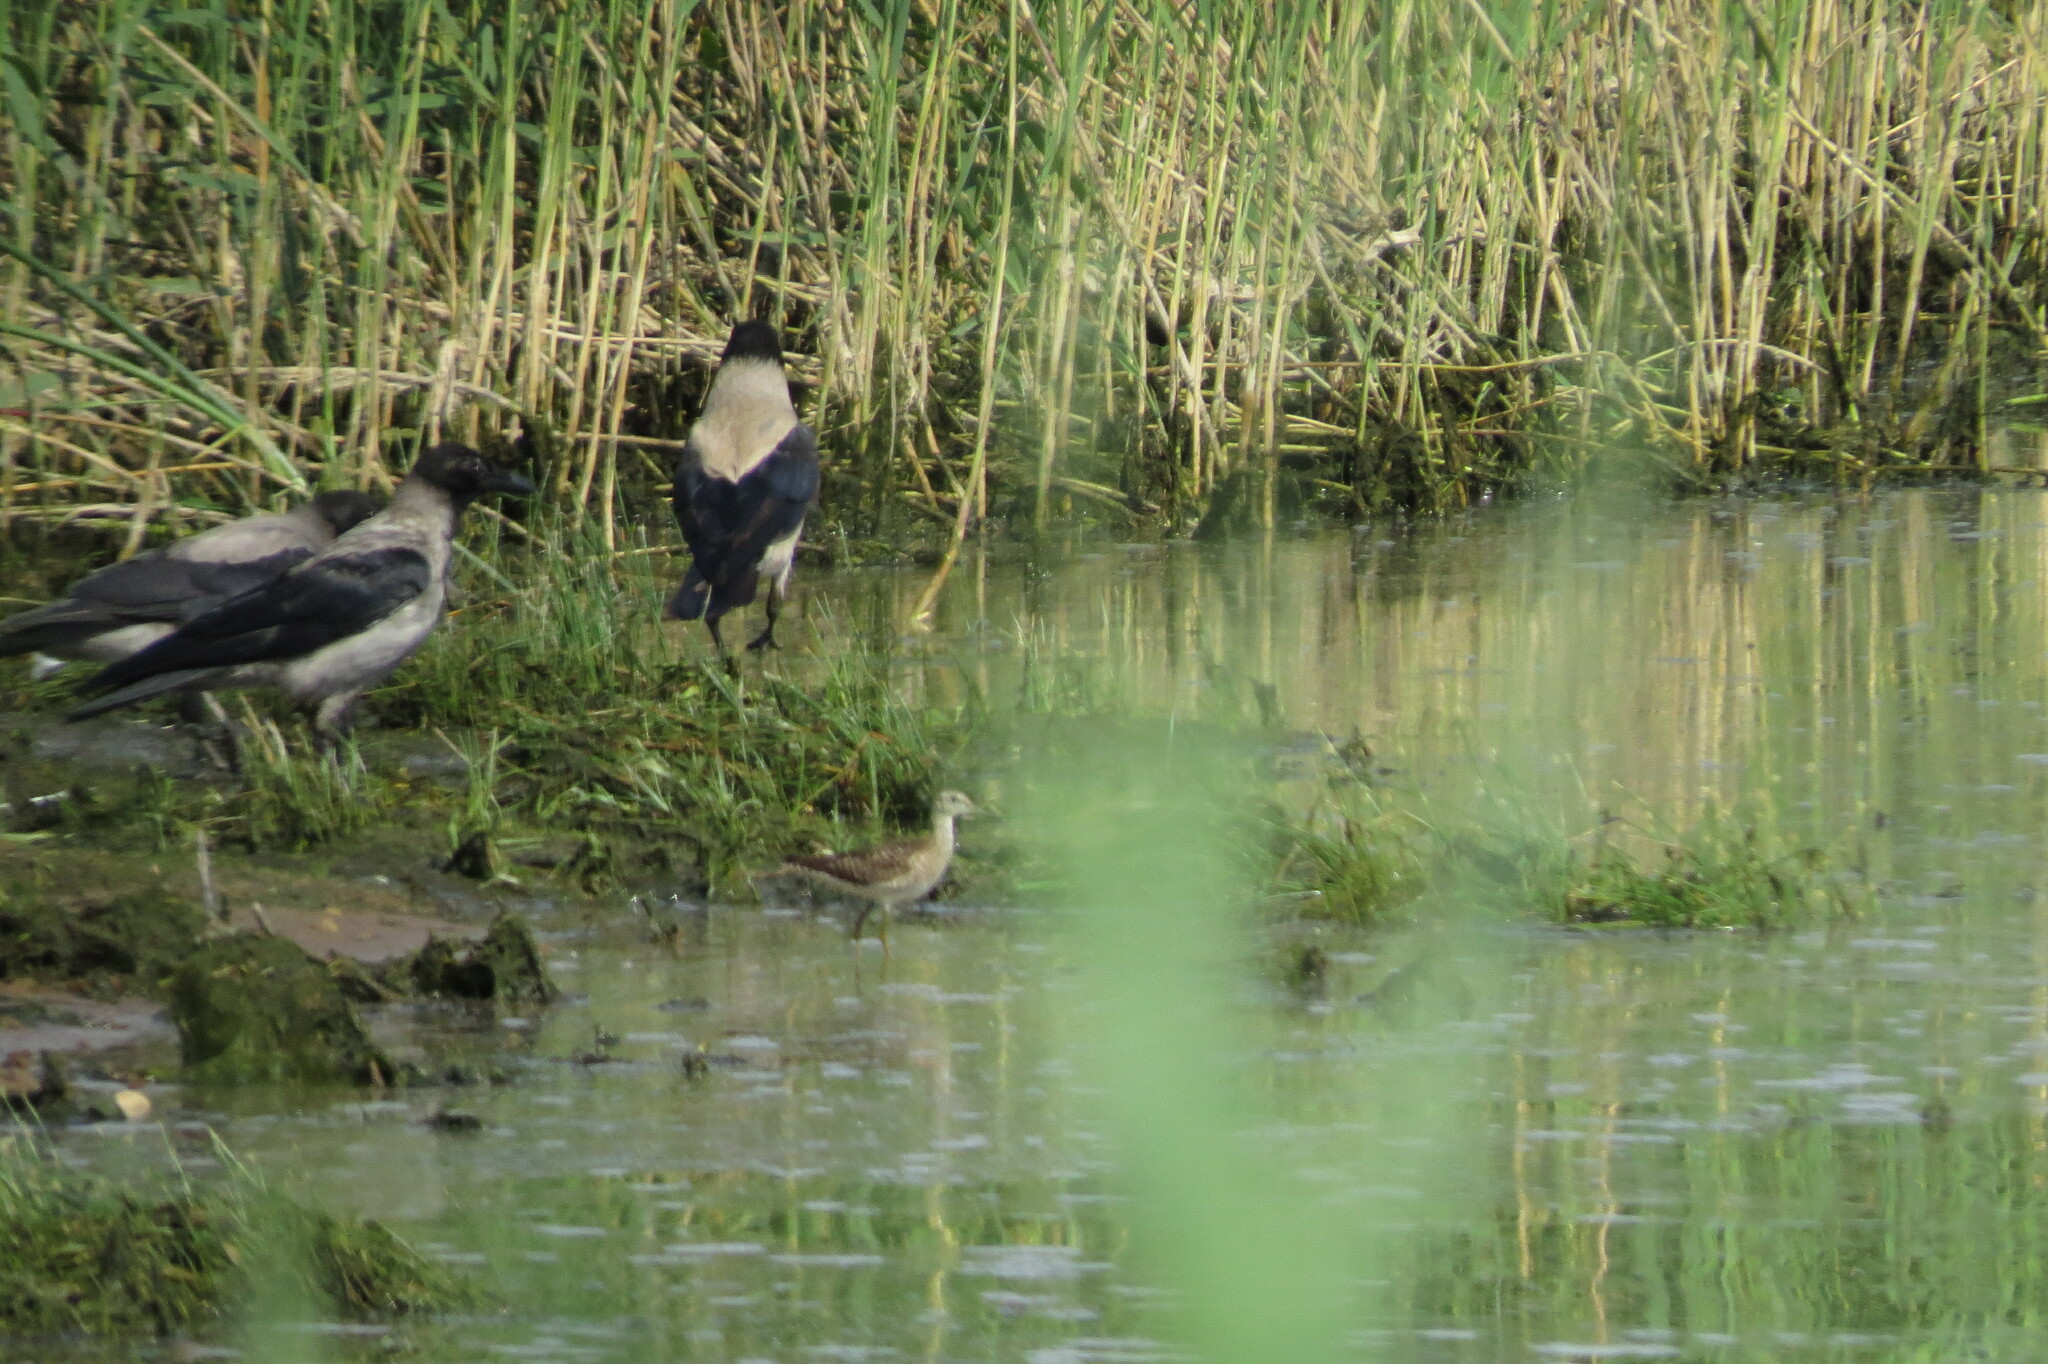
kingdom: Animalia
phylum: Chordata
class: Aves
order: Charadriiformes
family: Scolopacidae
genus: Tringa
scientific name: Tringa glareola
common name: Wood sandpiper
